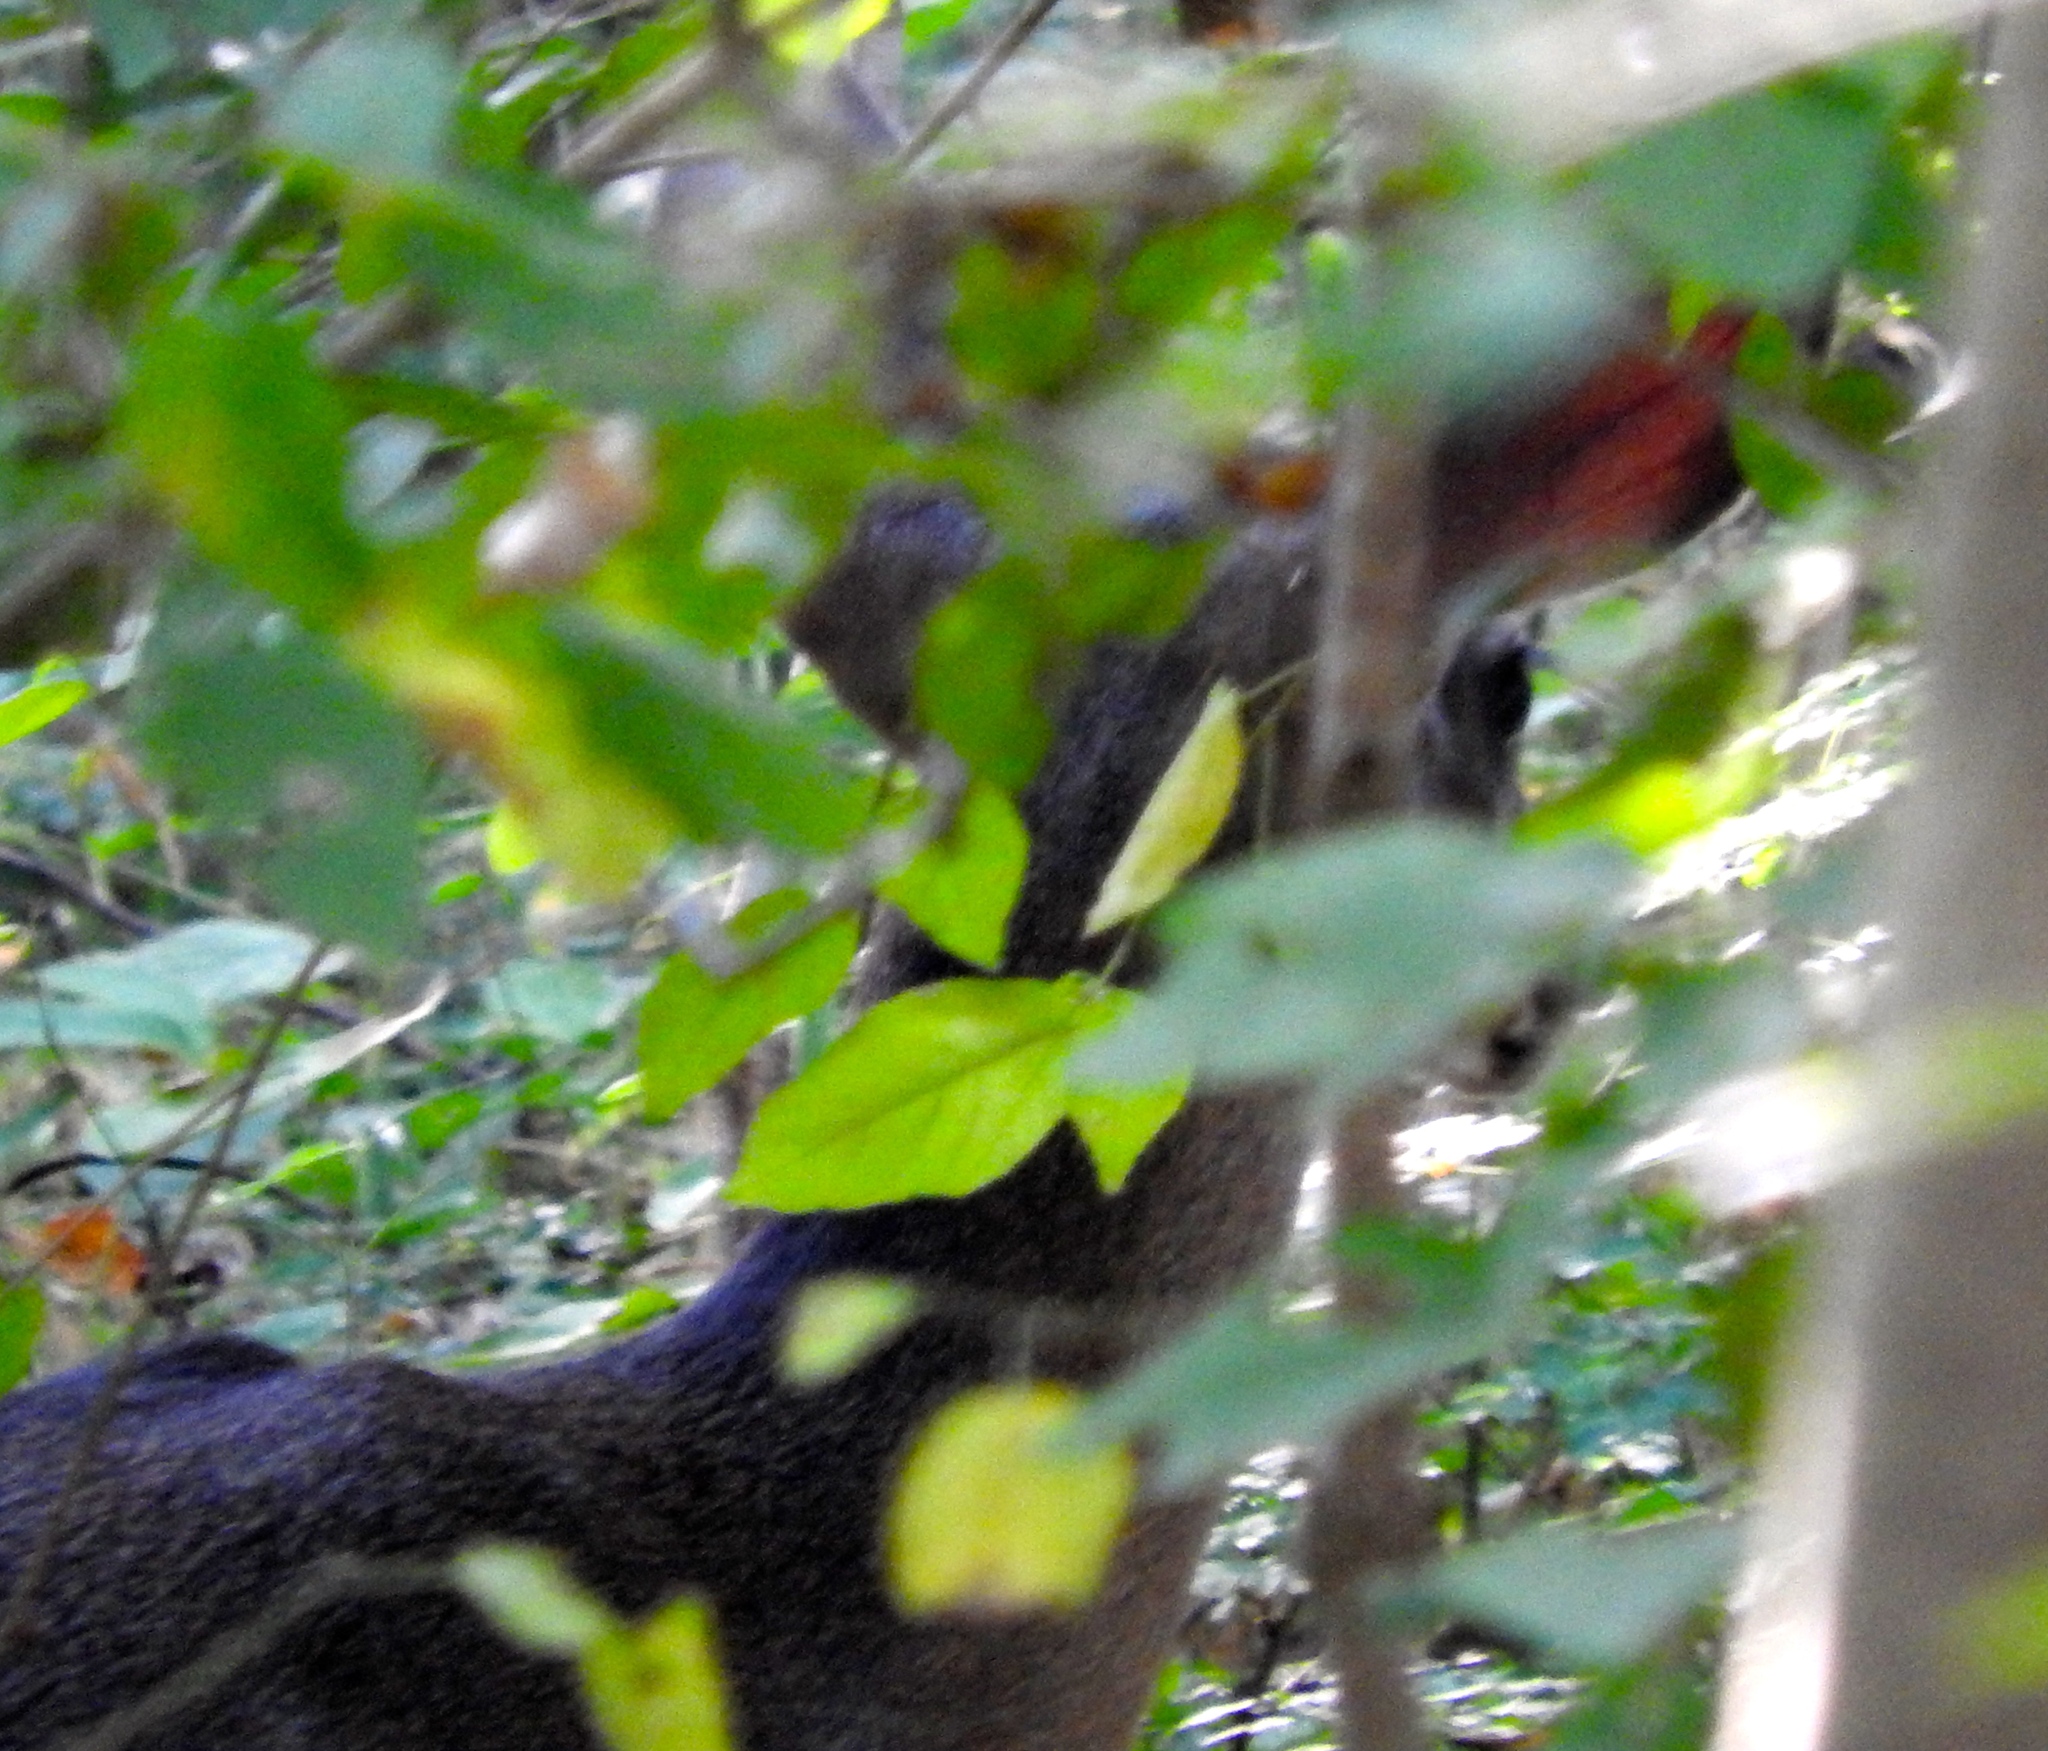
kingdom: Animalia
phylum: Chordata
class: Mammalia
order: Artiodactyla
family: Cervidae
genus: Odocoileus
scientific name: Odocoileus virginianus
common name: White-tailed deer
